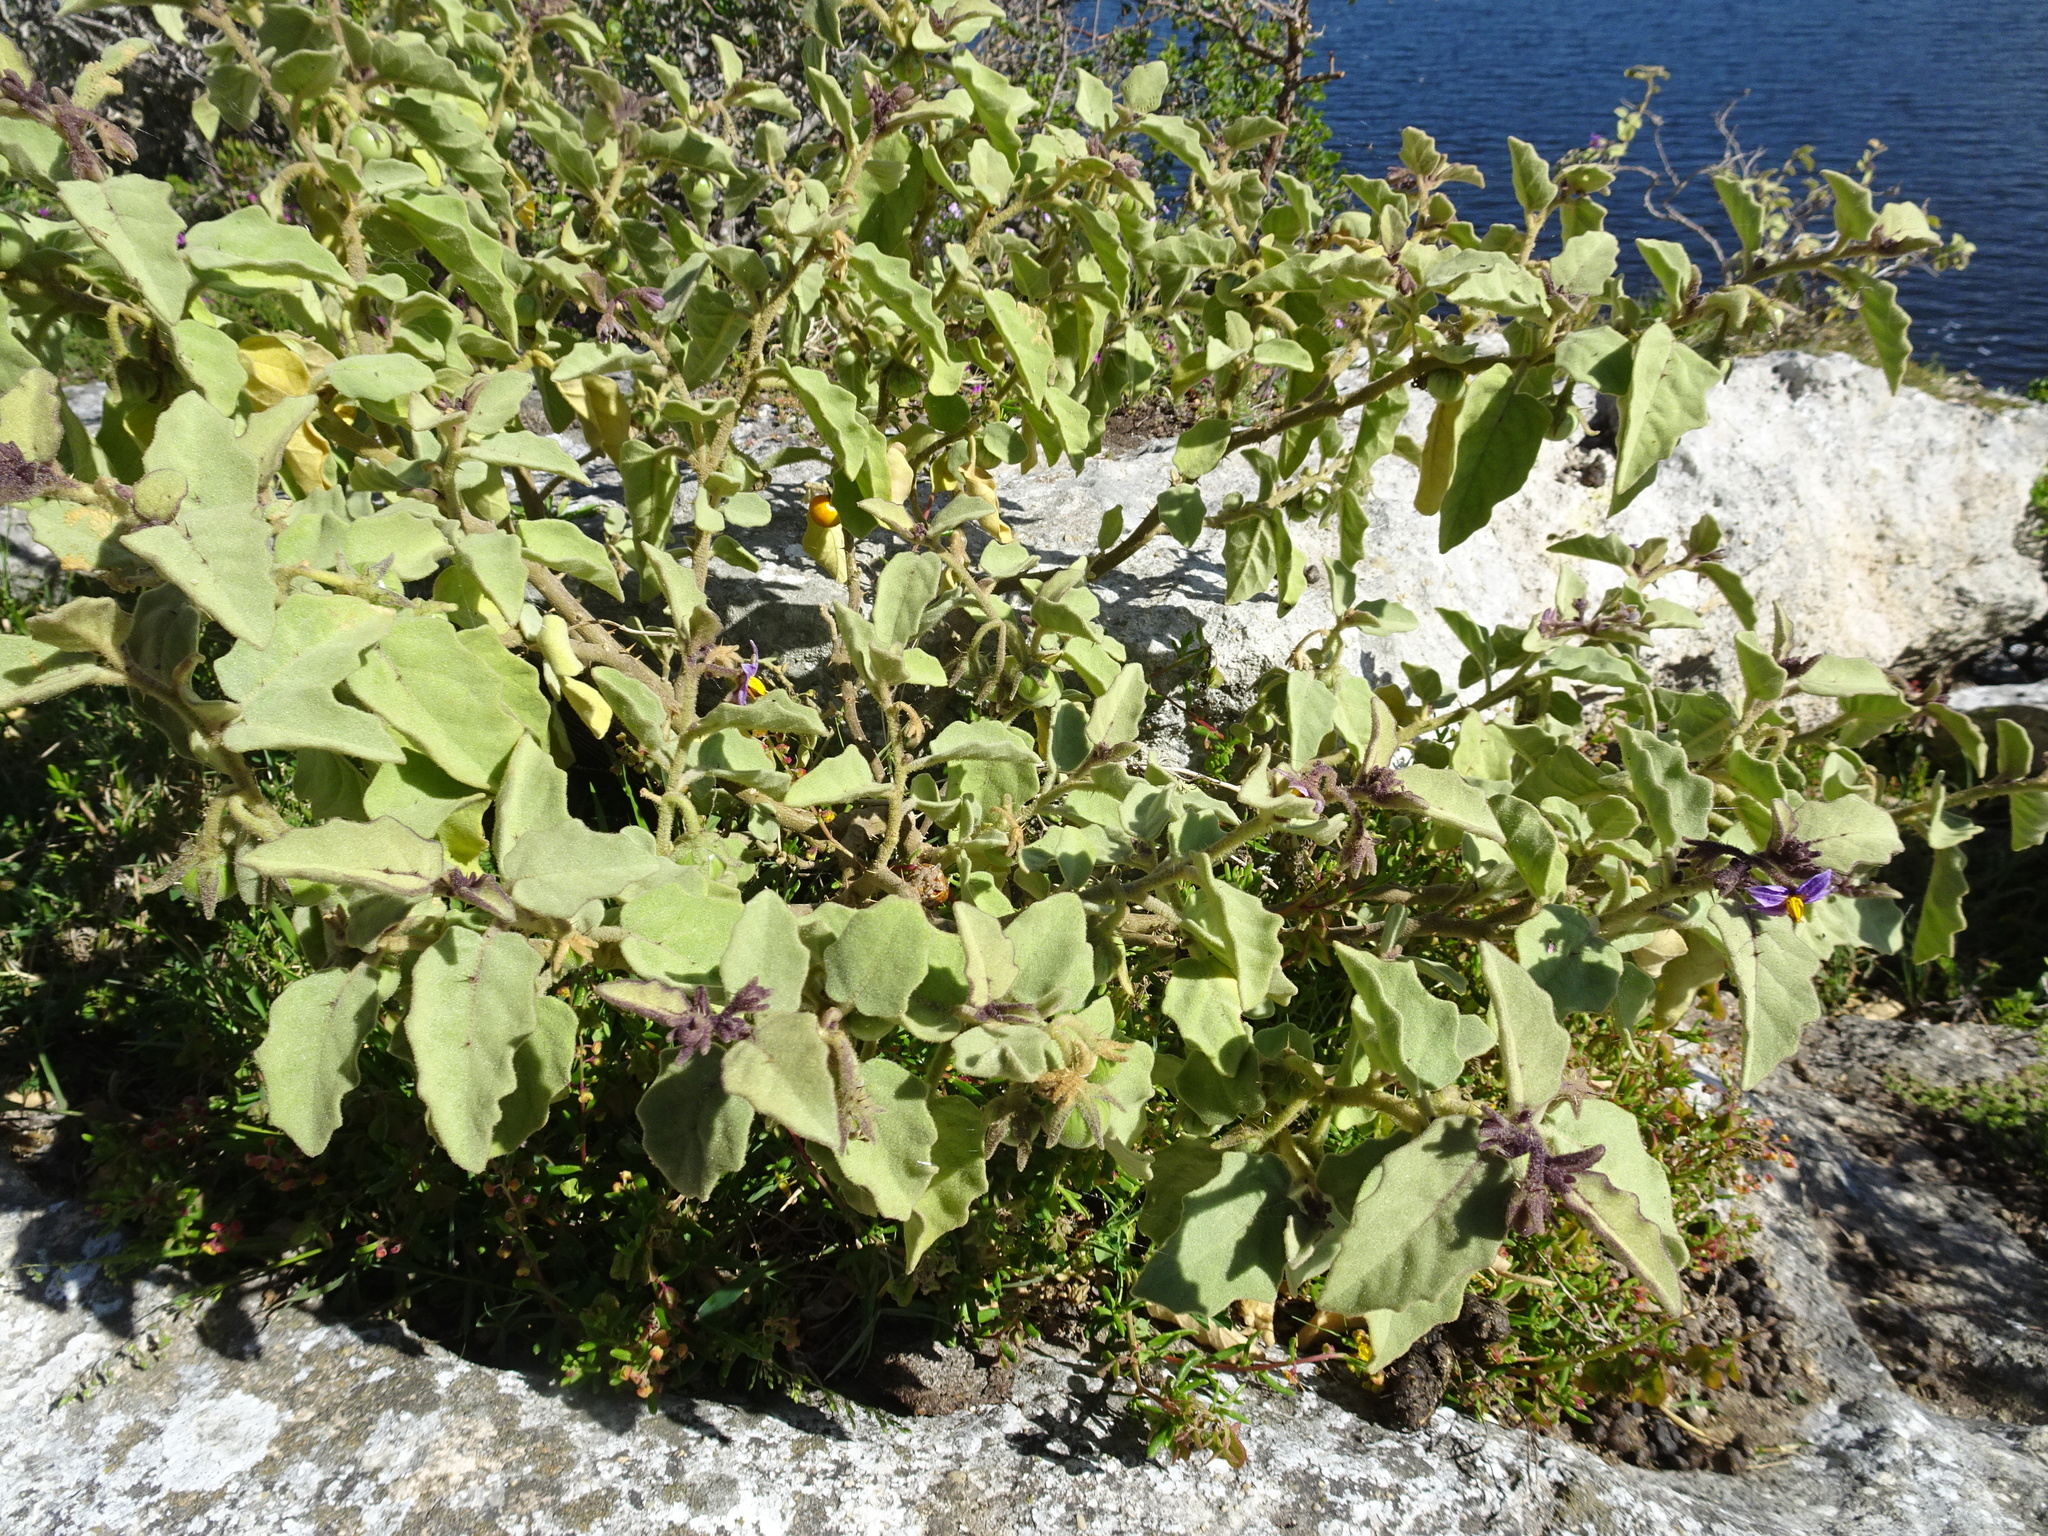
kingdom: Plantae
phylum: Tracheophyta
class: Magnoliopsida
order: Solanales
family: Solanaceae
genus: Solanum
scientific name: Solanum tomentosum
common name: Wild aubergine
